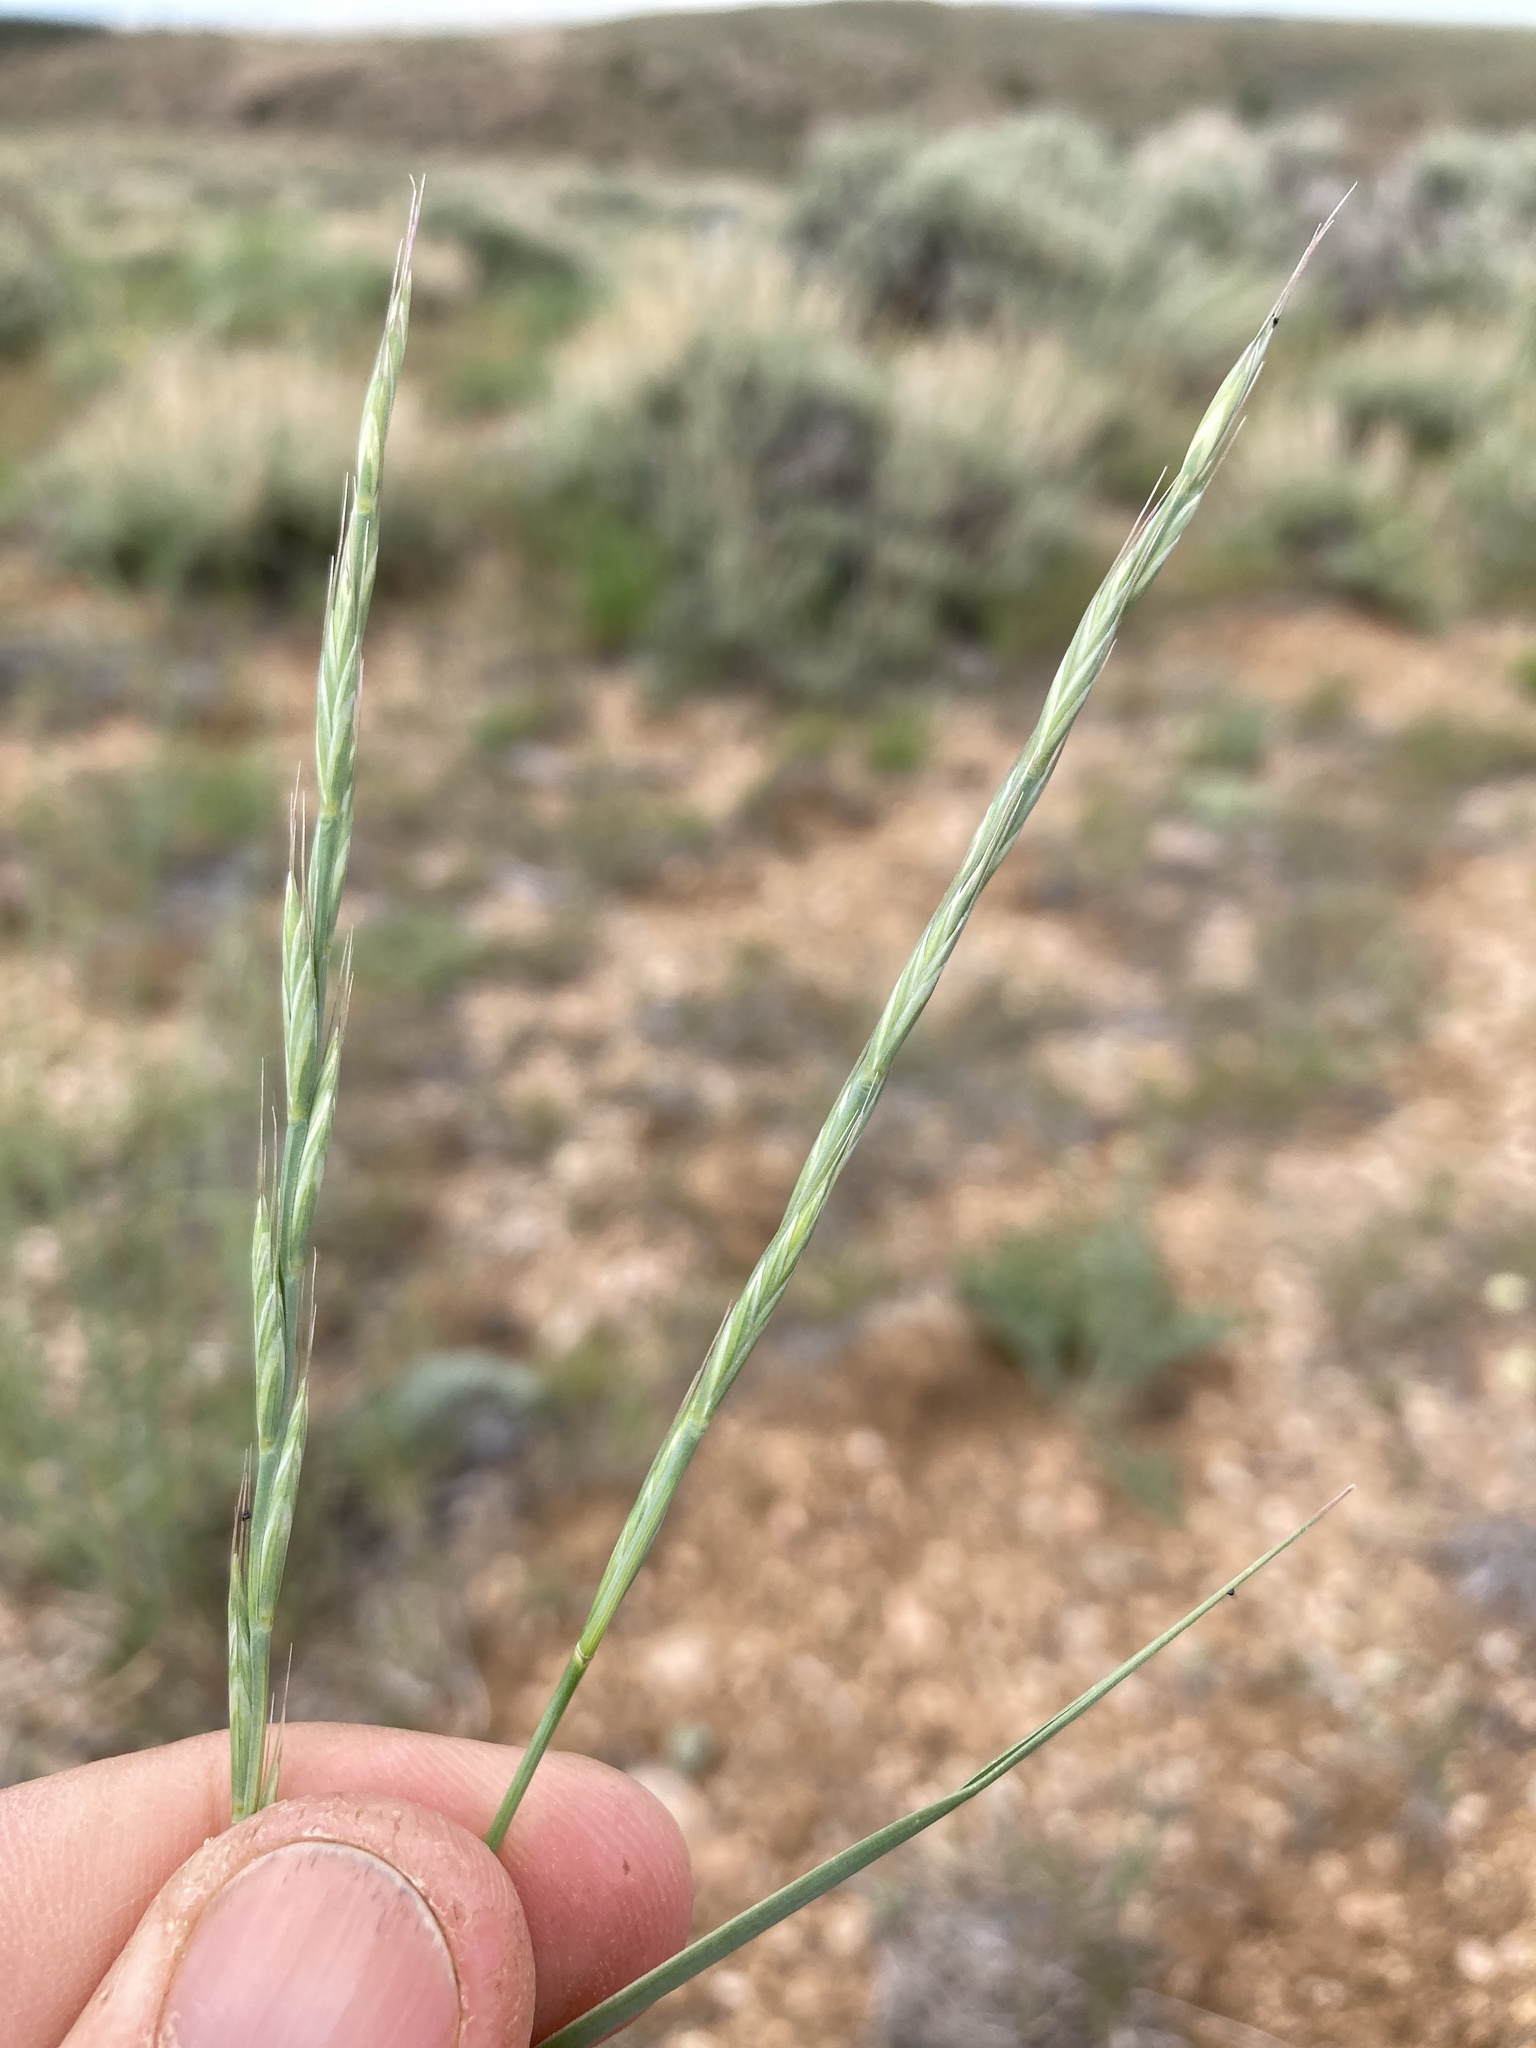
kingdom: Plantae
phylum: Tracheophyta
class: Liliopsida
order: Poales
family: Poaceae
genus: Pseudoroegneria
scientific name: Pseudoroegneria spicata
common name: Bluebunch wheatgrass
